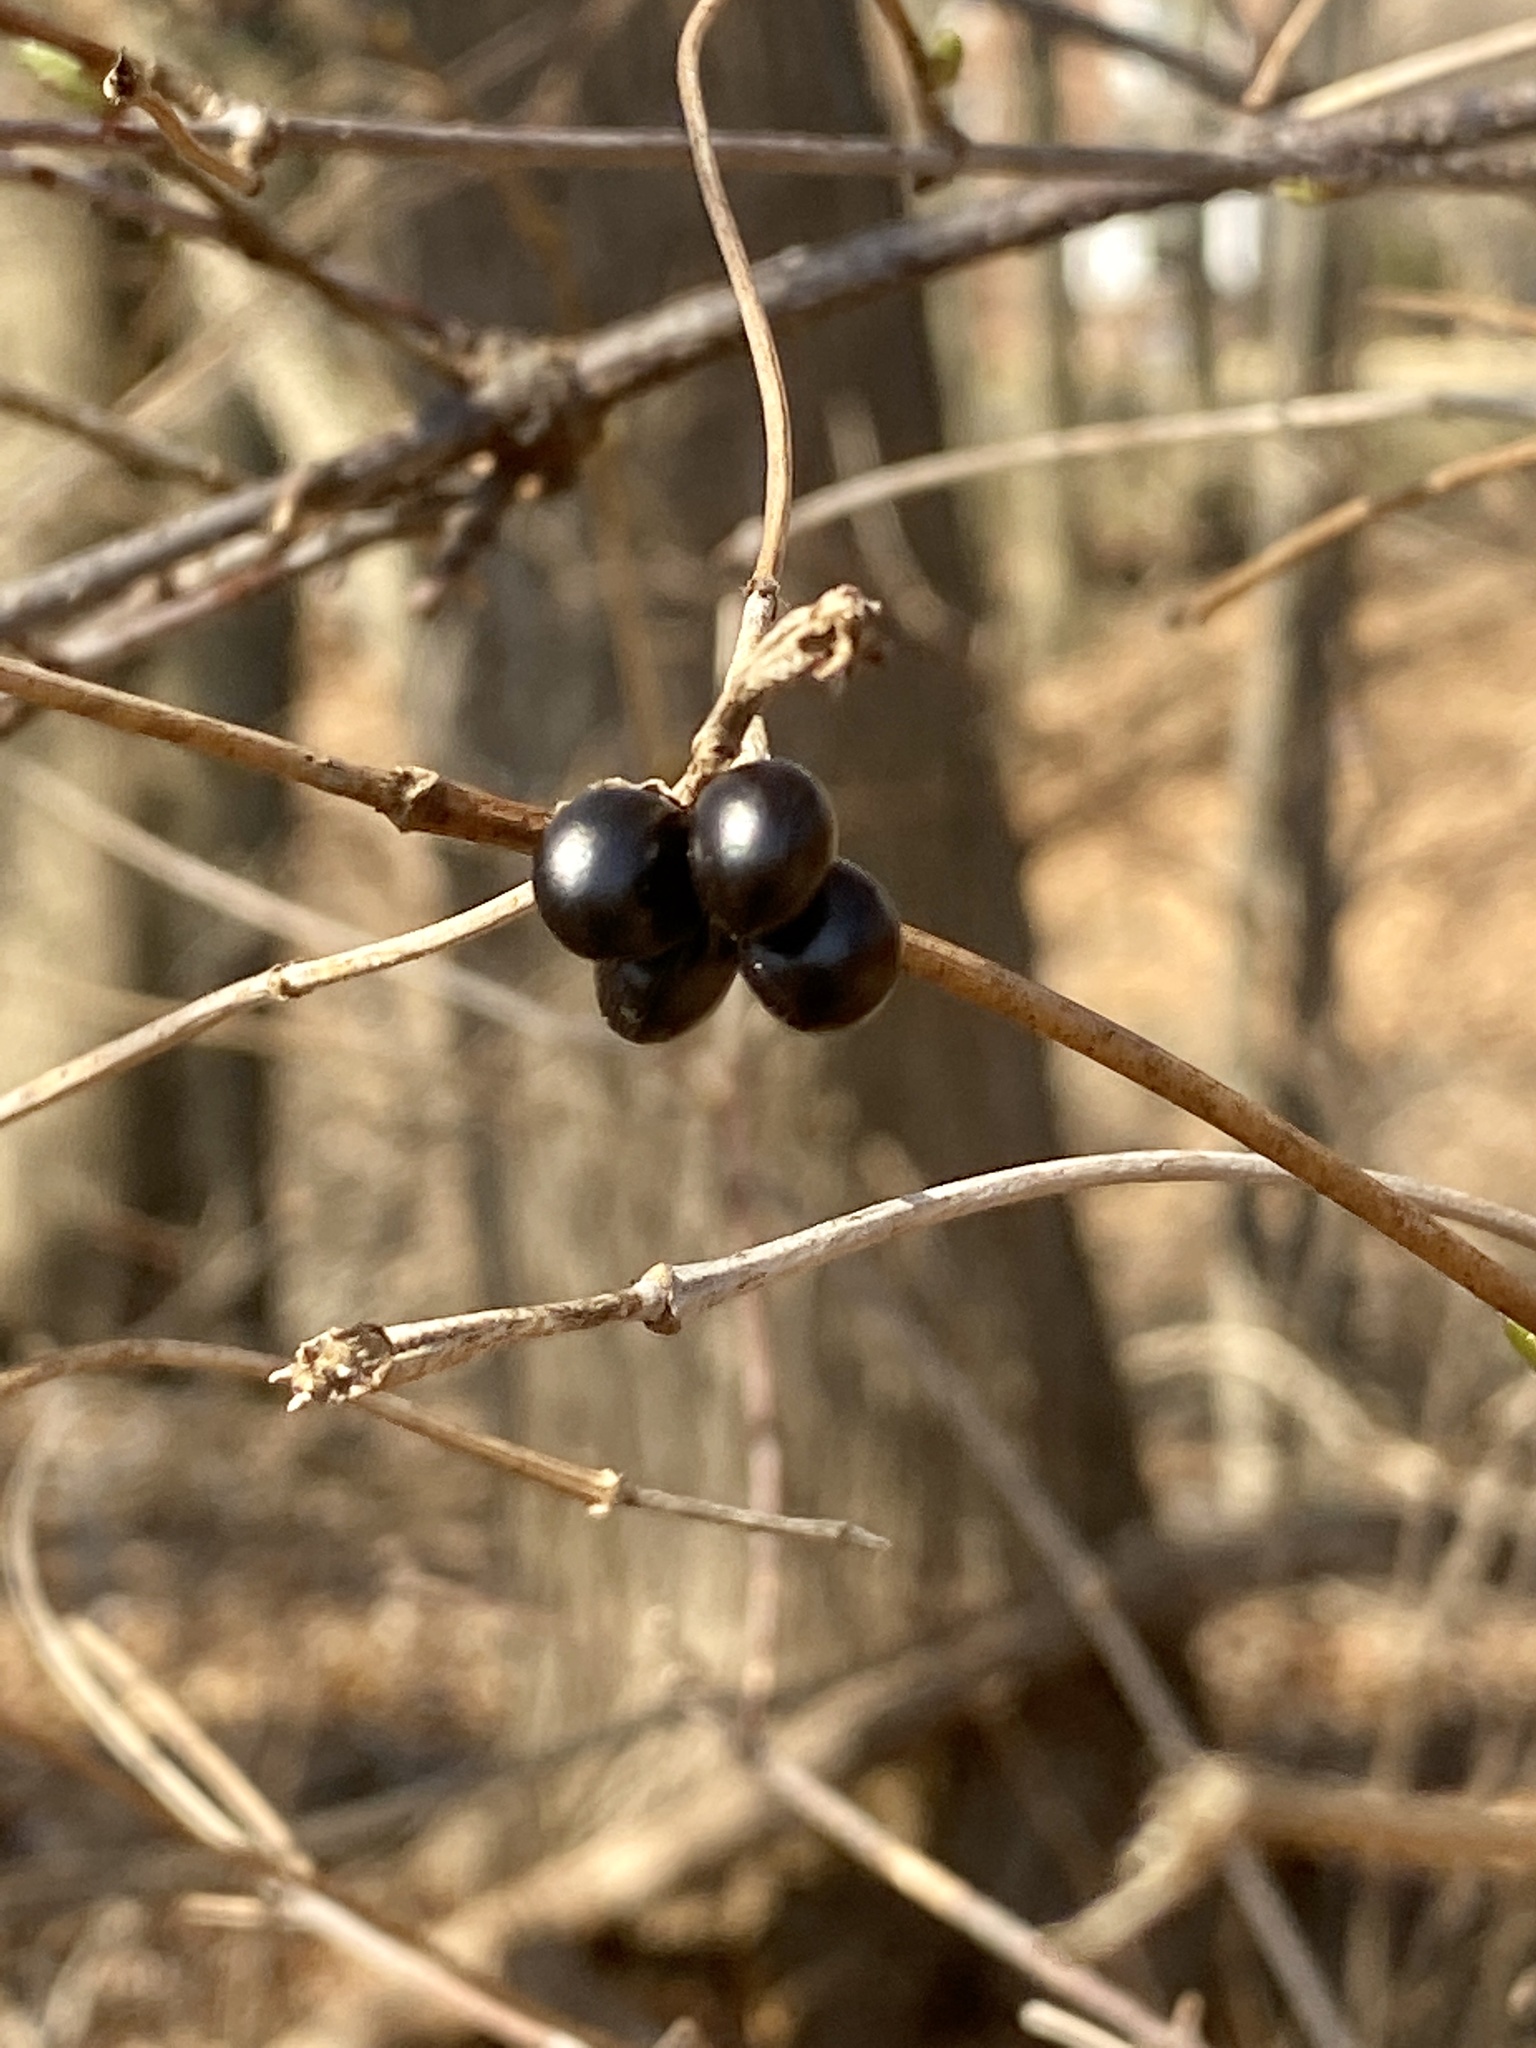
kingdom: Plantae
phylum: Tracheophyta
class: Magnoliopsida
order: Rosales
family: Rosaceae
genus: Rhodotypos
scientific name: Rhodotypos scandens
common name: Jetbead
